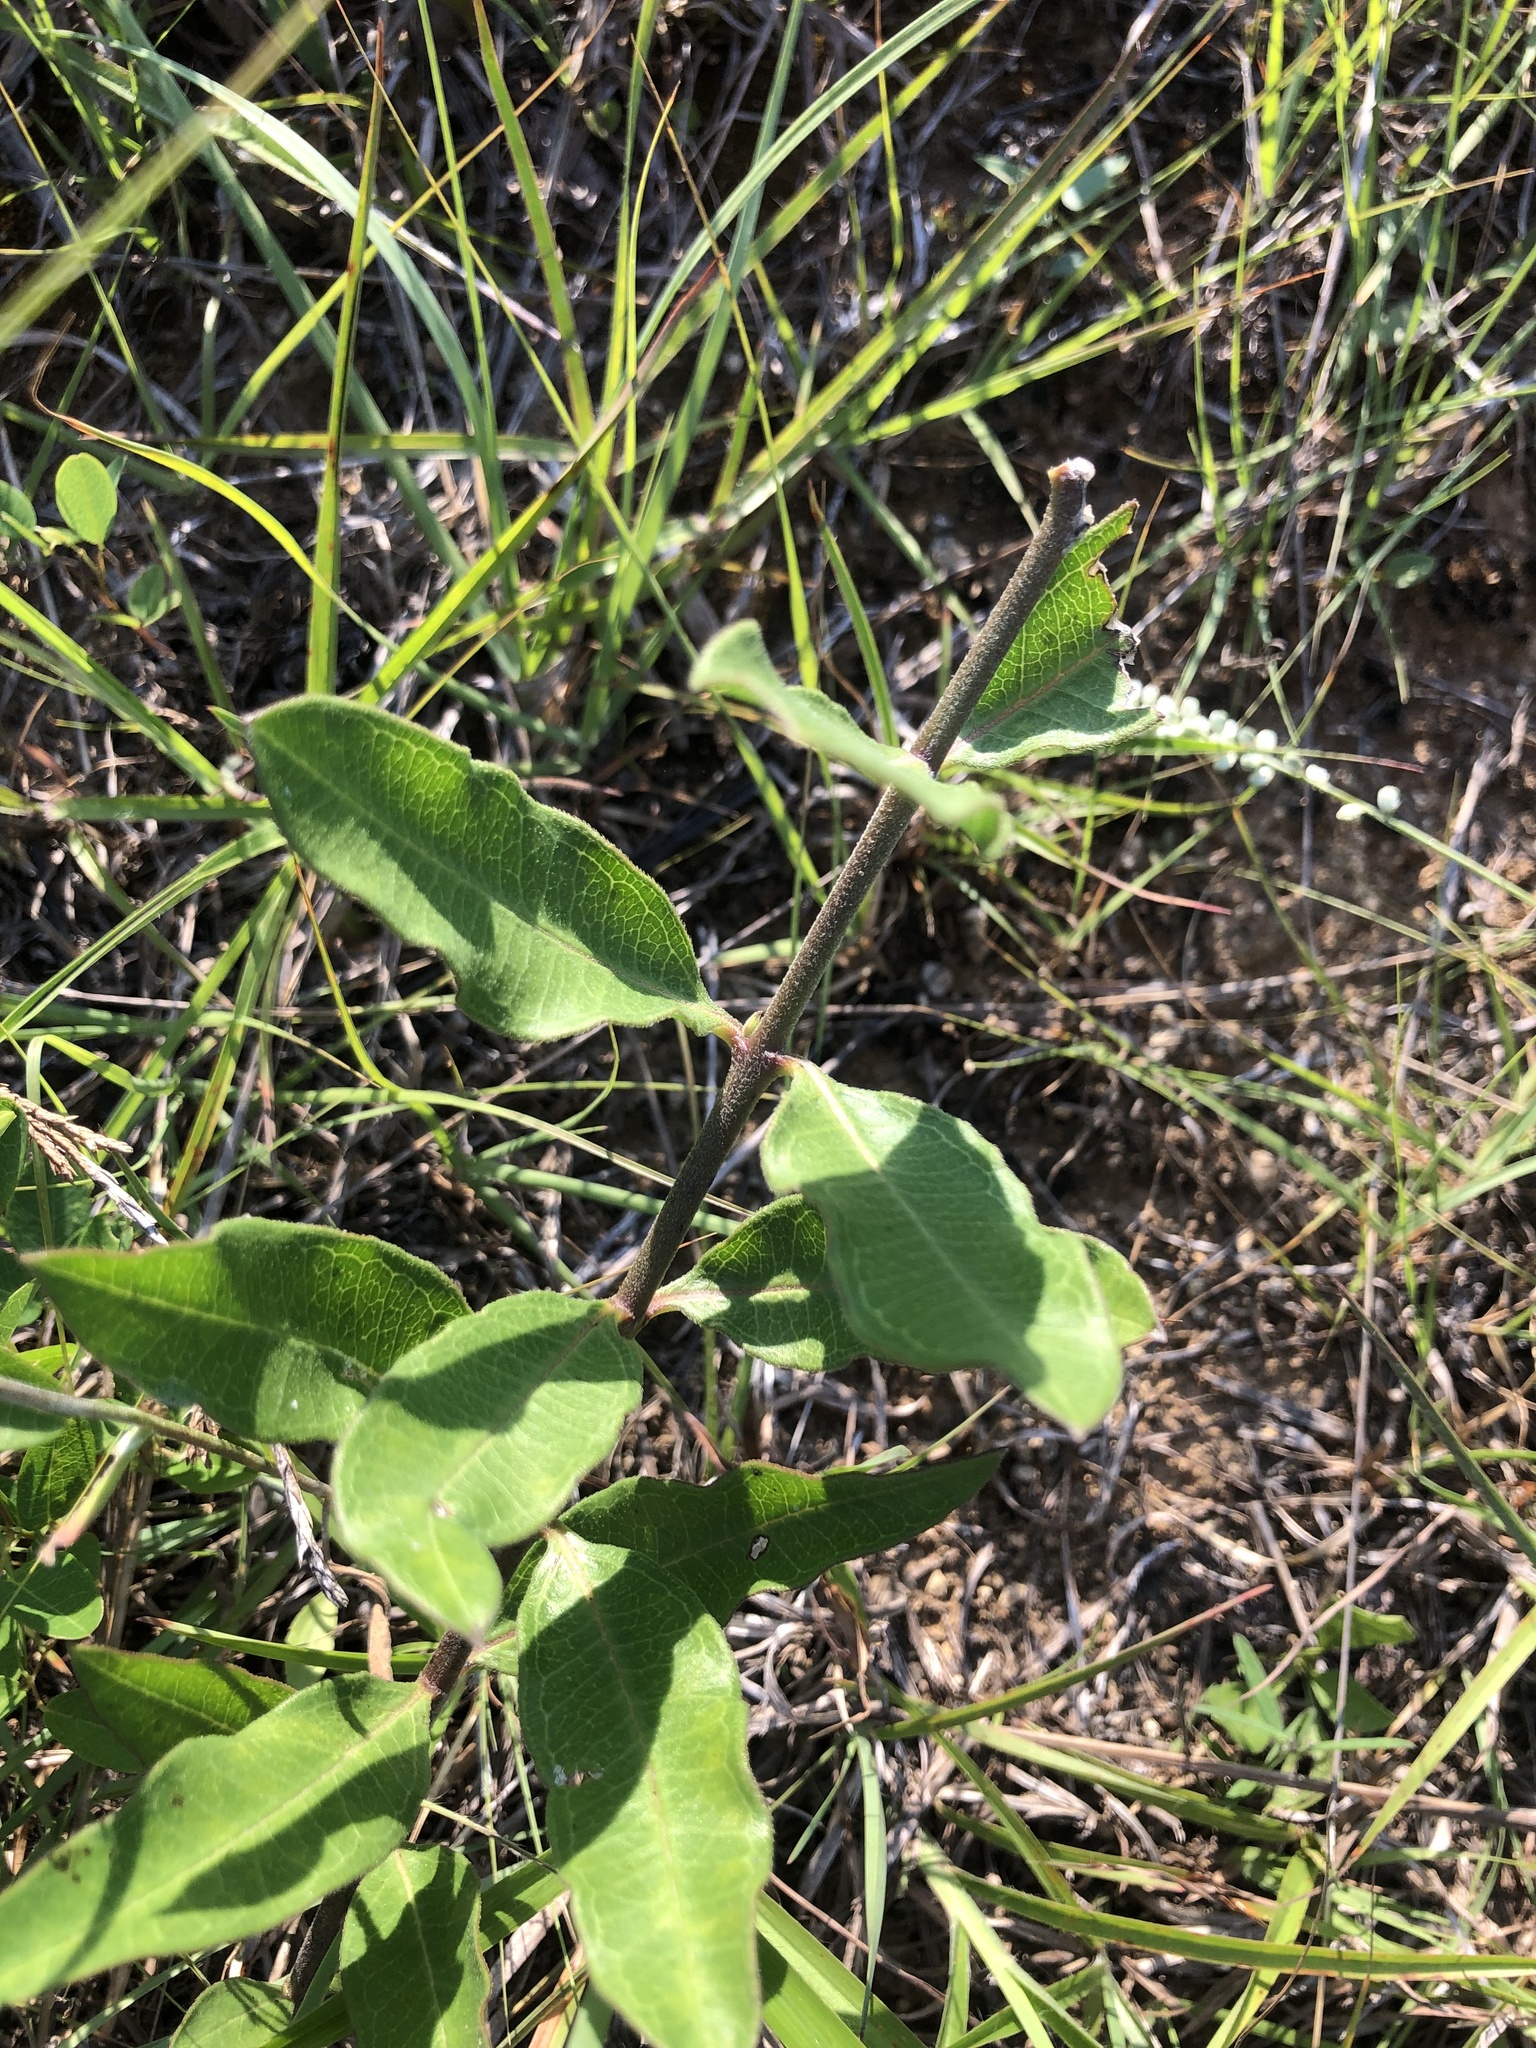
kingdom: Plantae
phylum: Tracheophyta
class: Magnoliopsida
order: Gentianales
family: Apocynaceae
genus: Asclepias
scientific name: Asclepias viridiflora
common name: Green comet milkweed
